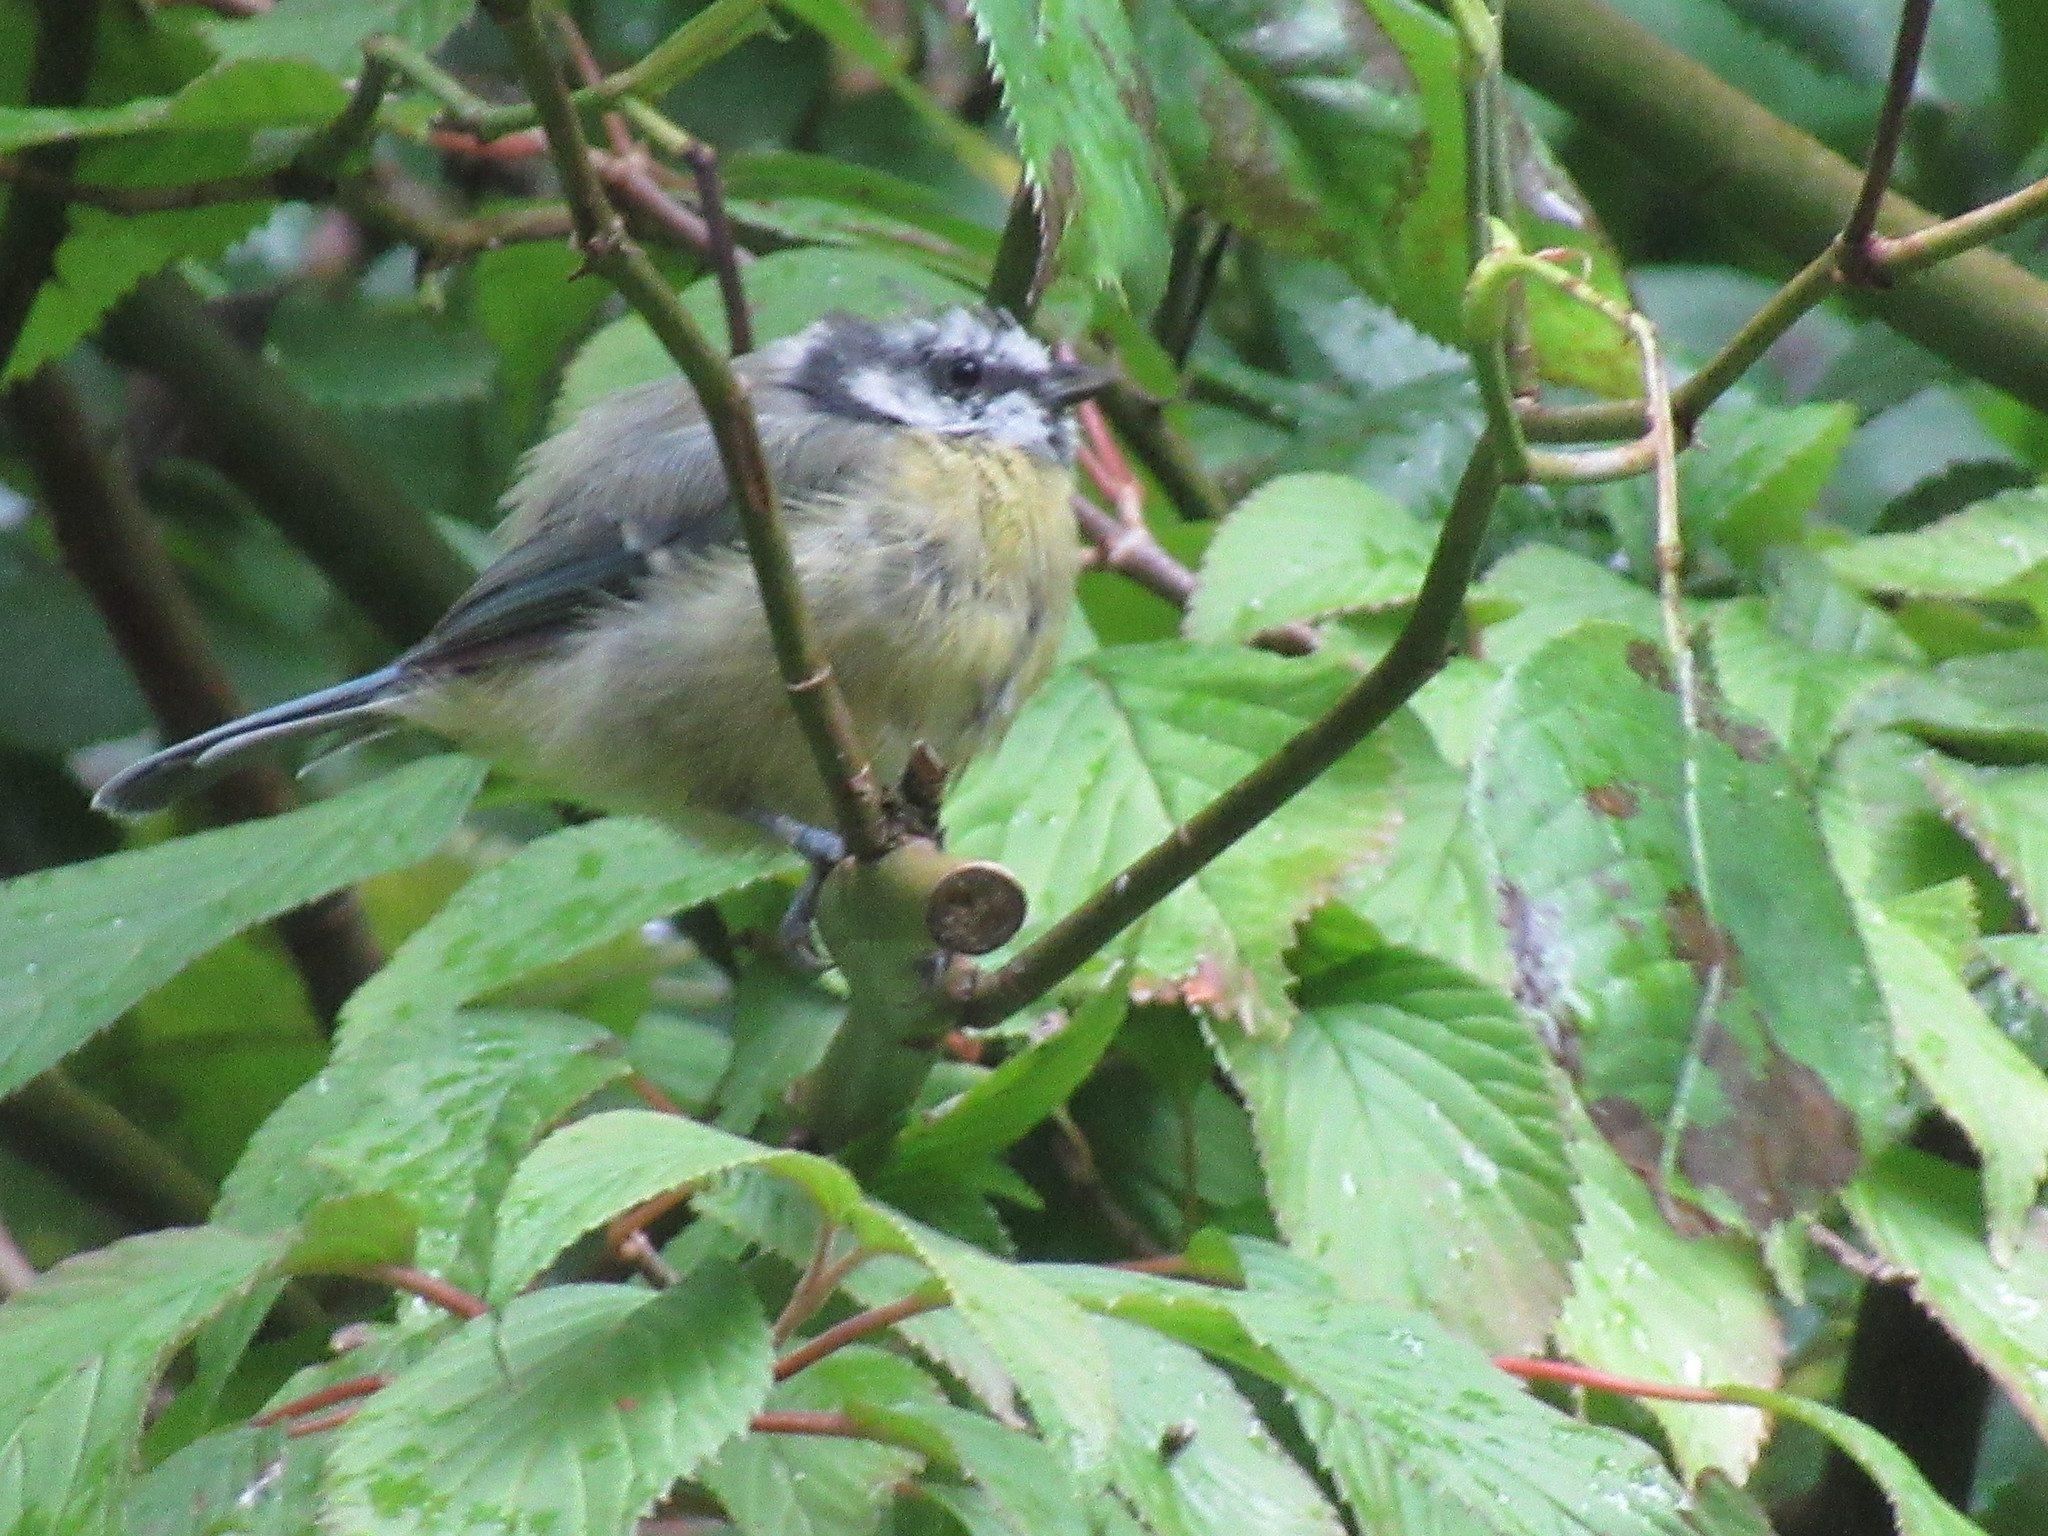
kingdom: Animalia
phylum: Chordata
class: Aves
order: Passeriformes
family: Paridae
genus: Cyanistes
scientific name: Cyanistes caeruleus
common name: Eurasian blue tit
